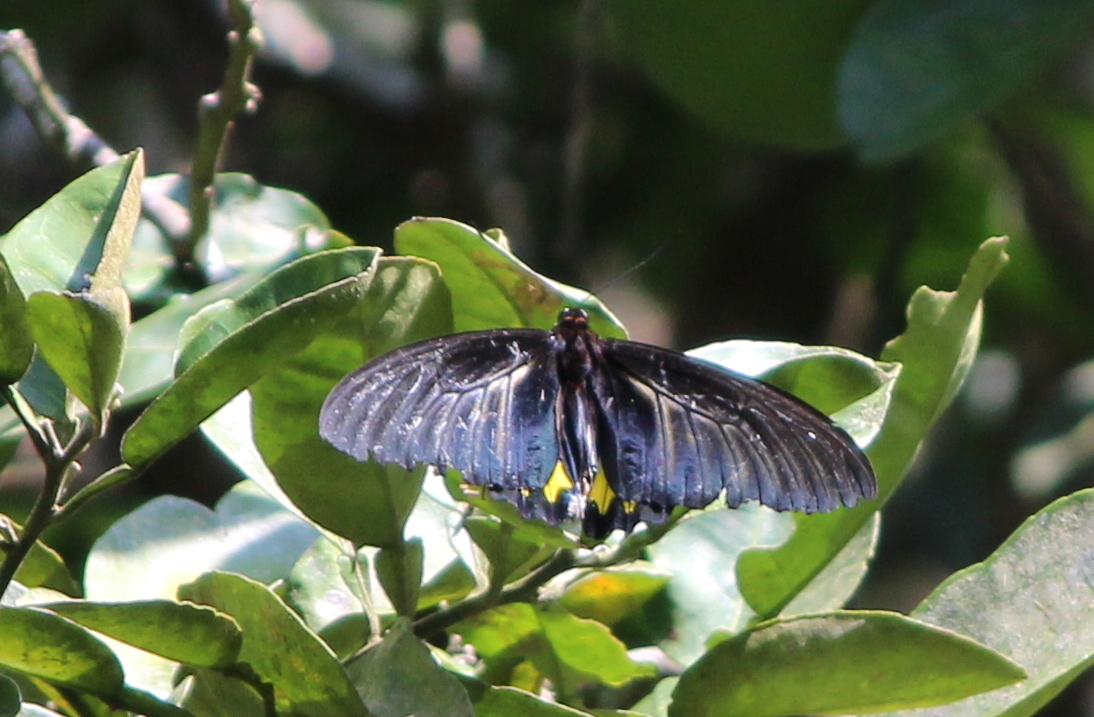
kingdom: Animalia
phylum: Arthropoda
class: Insecta
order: Lepidoptera
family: Papilionidae
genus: Troides
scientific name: Troides minos
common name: Malabar birdwing
